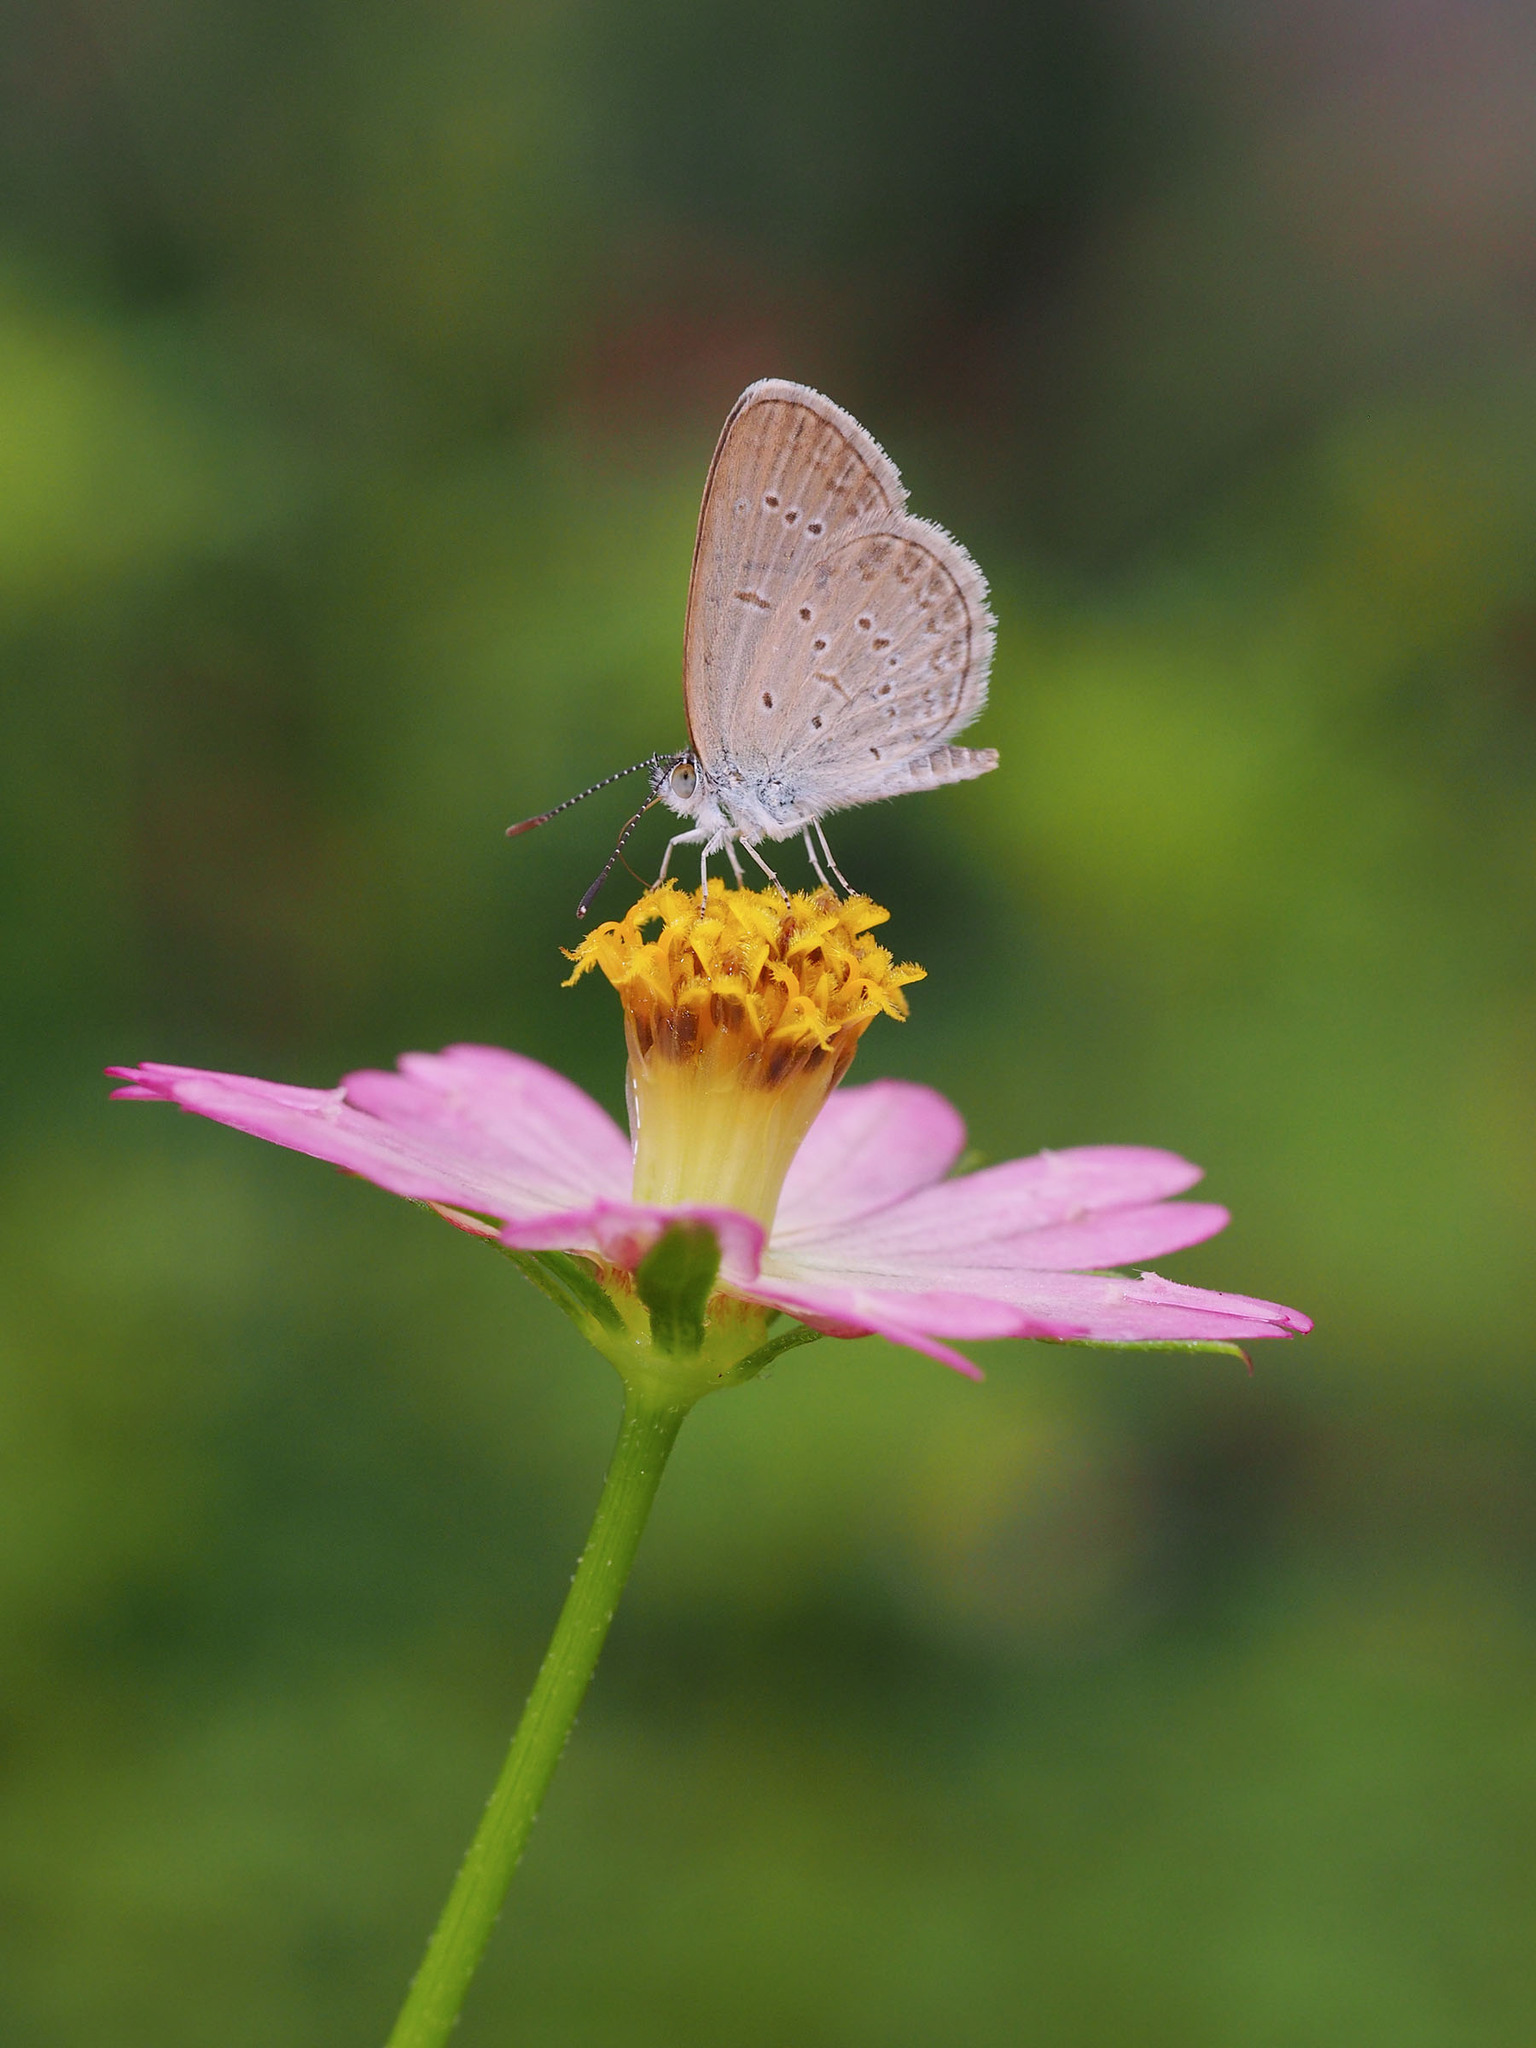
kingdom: Animalia
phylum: Arthropoda
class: Insecta
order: Lepidoptera
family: Lycaenidae
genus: Zizina
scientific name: Zizina otis
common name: Lesser grass blue
